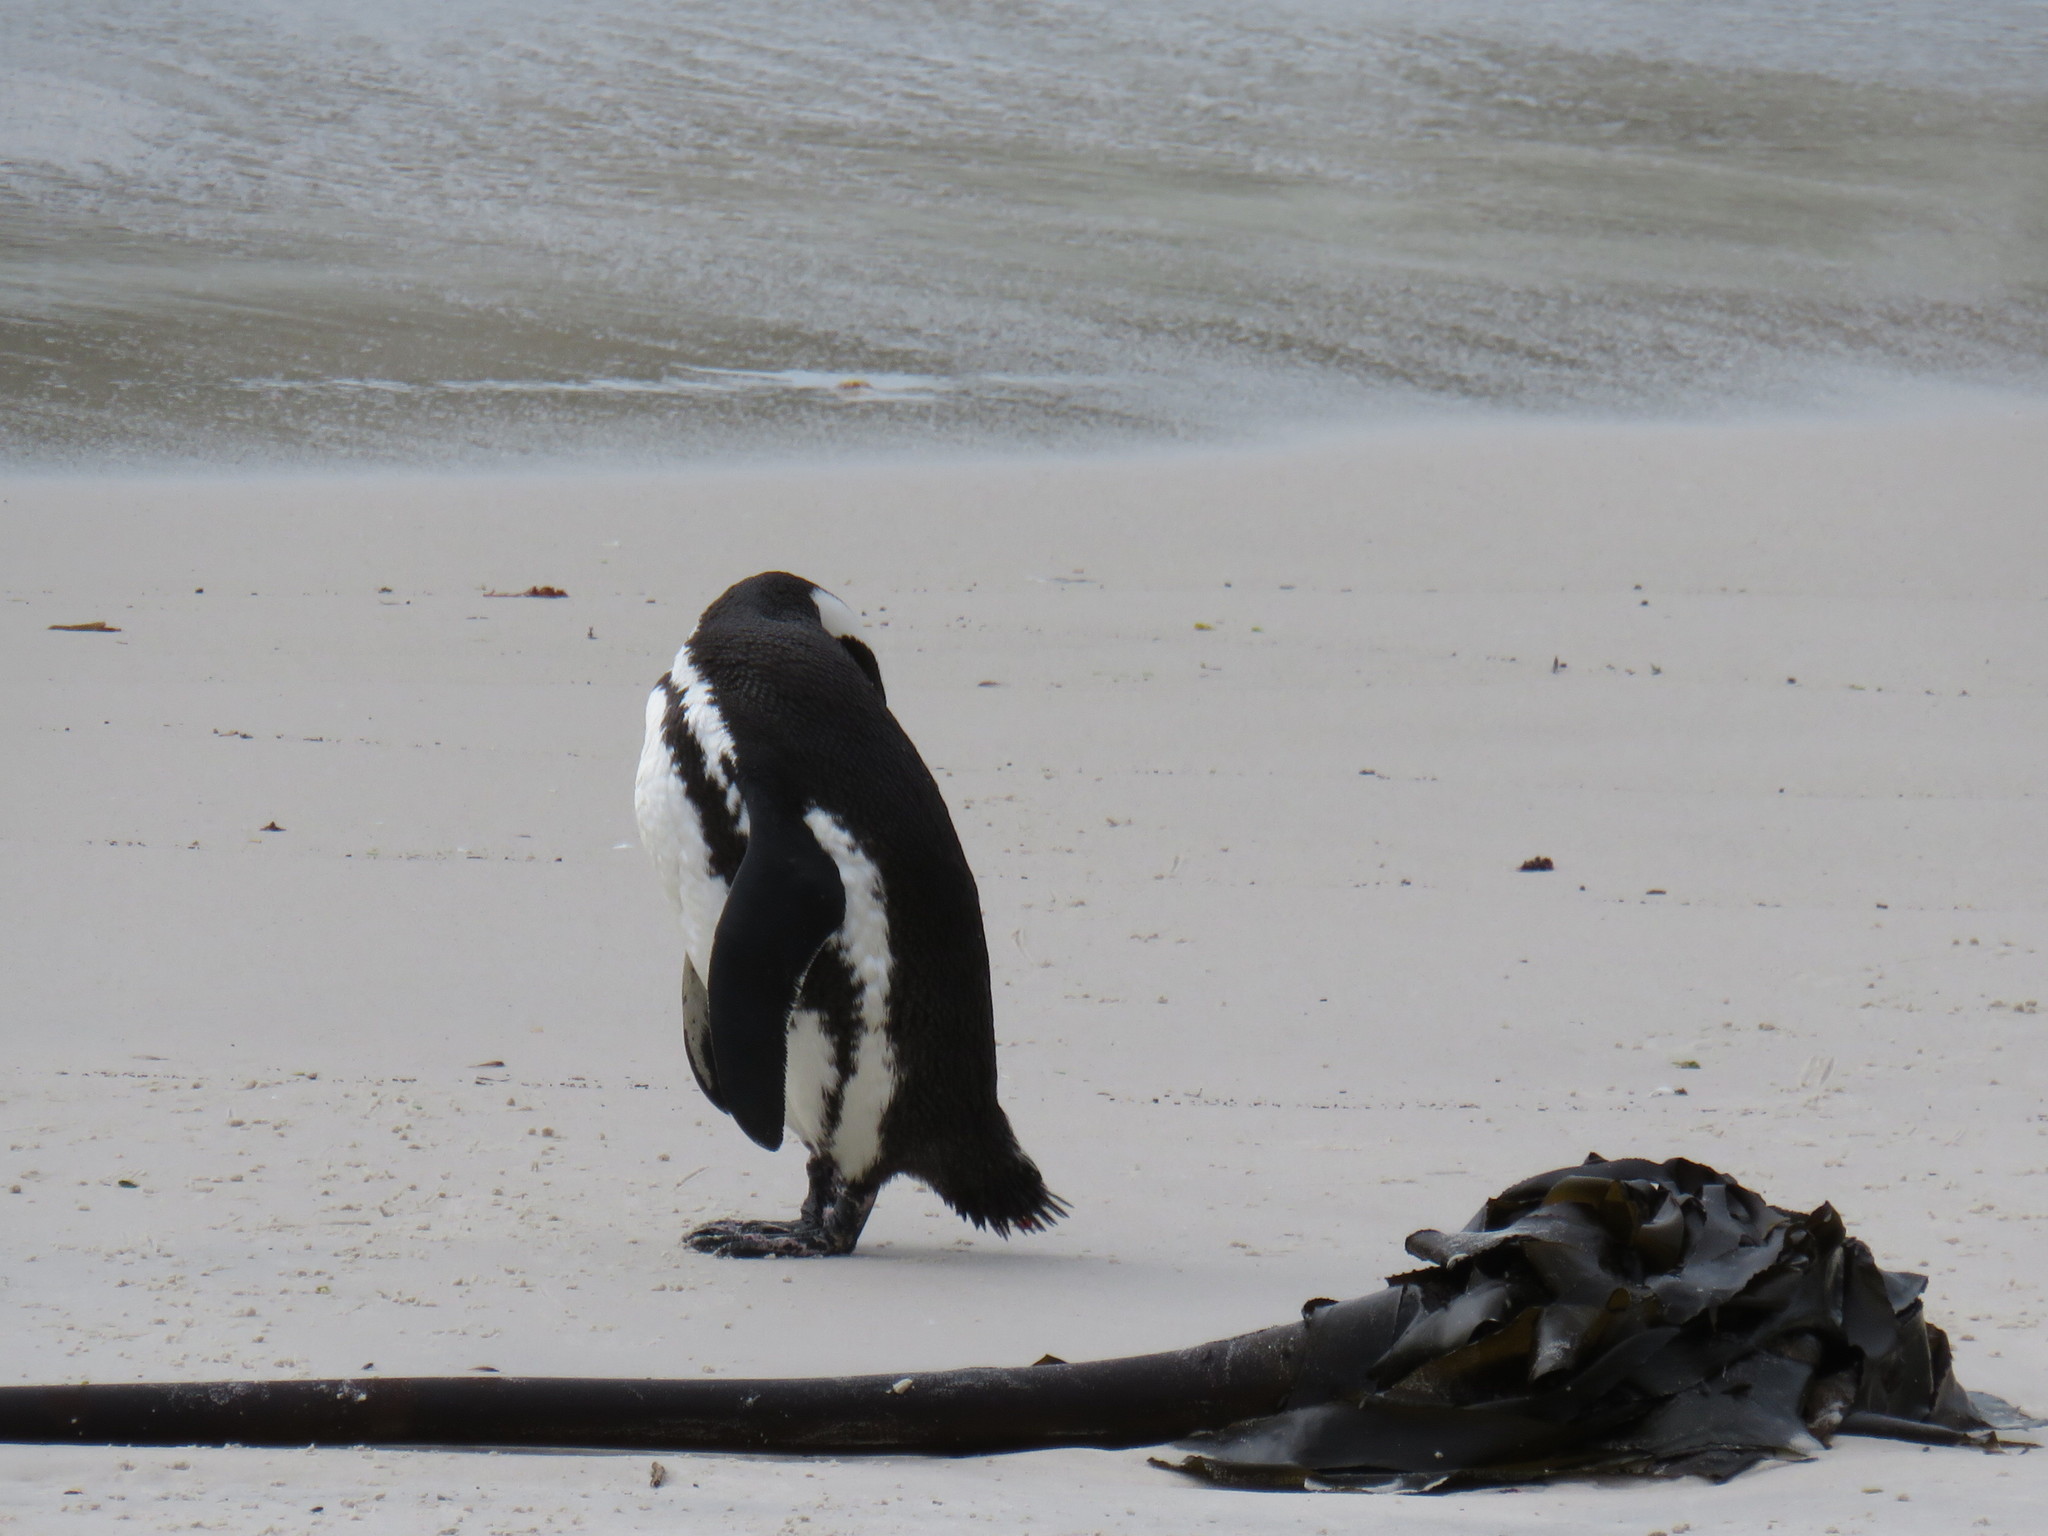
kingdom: Animalia
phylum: Chordata
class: Aves
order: Sphenisciformes
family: Spheniscidae
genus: Spheniscus
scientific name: Spheniscus demersus
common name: African penguin
